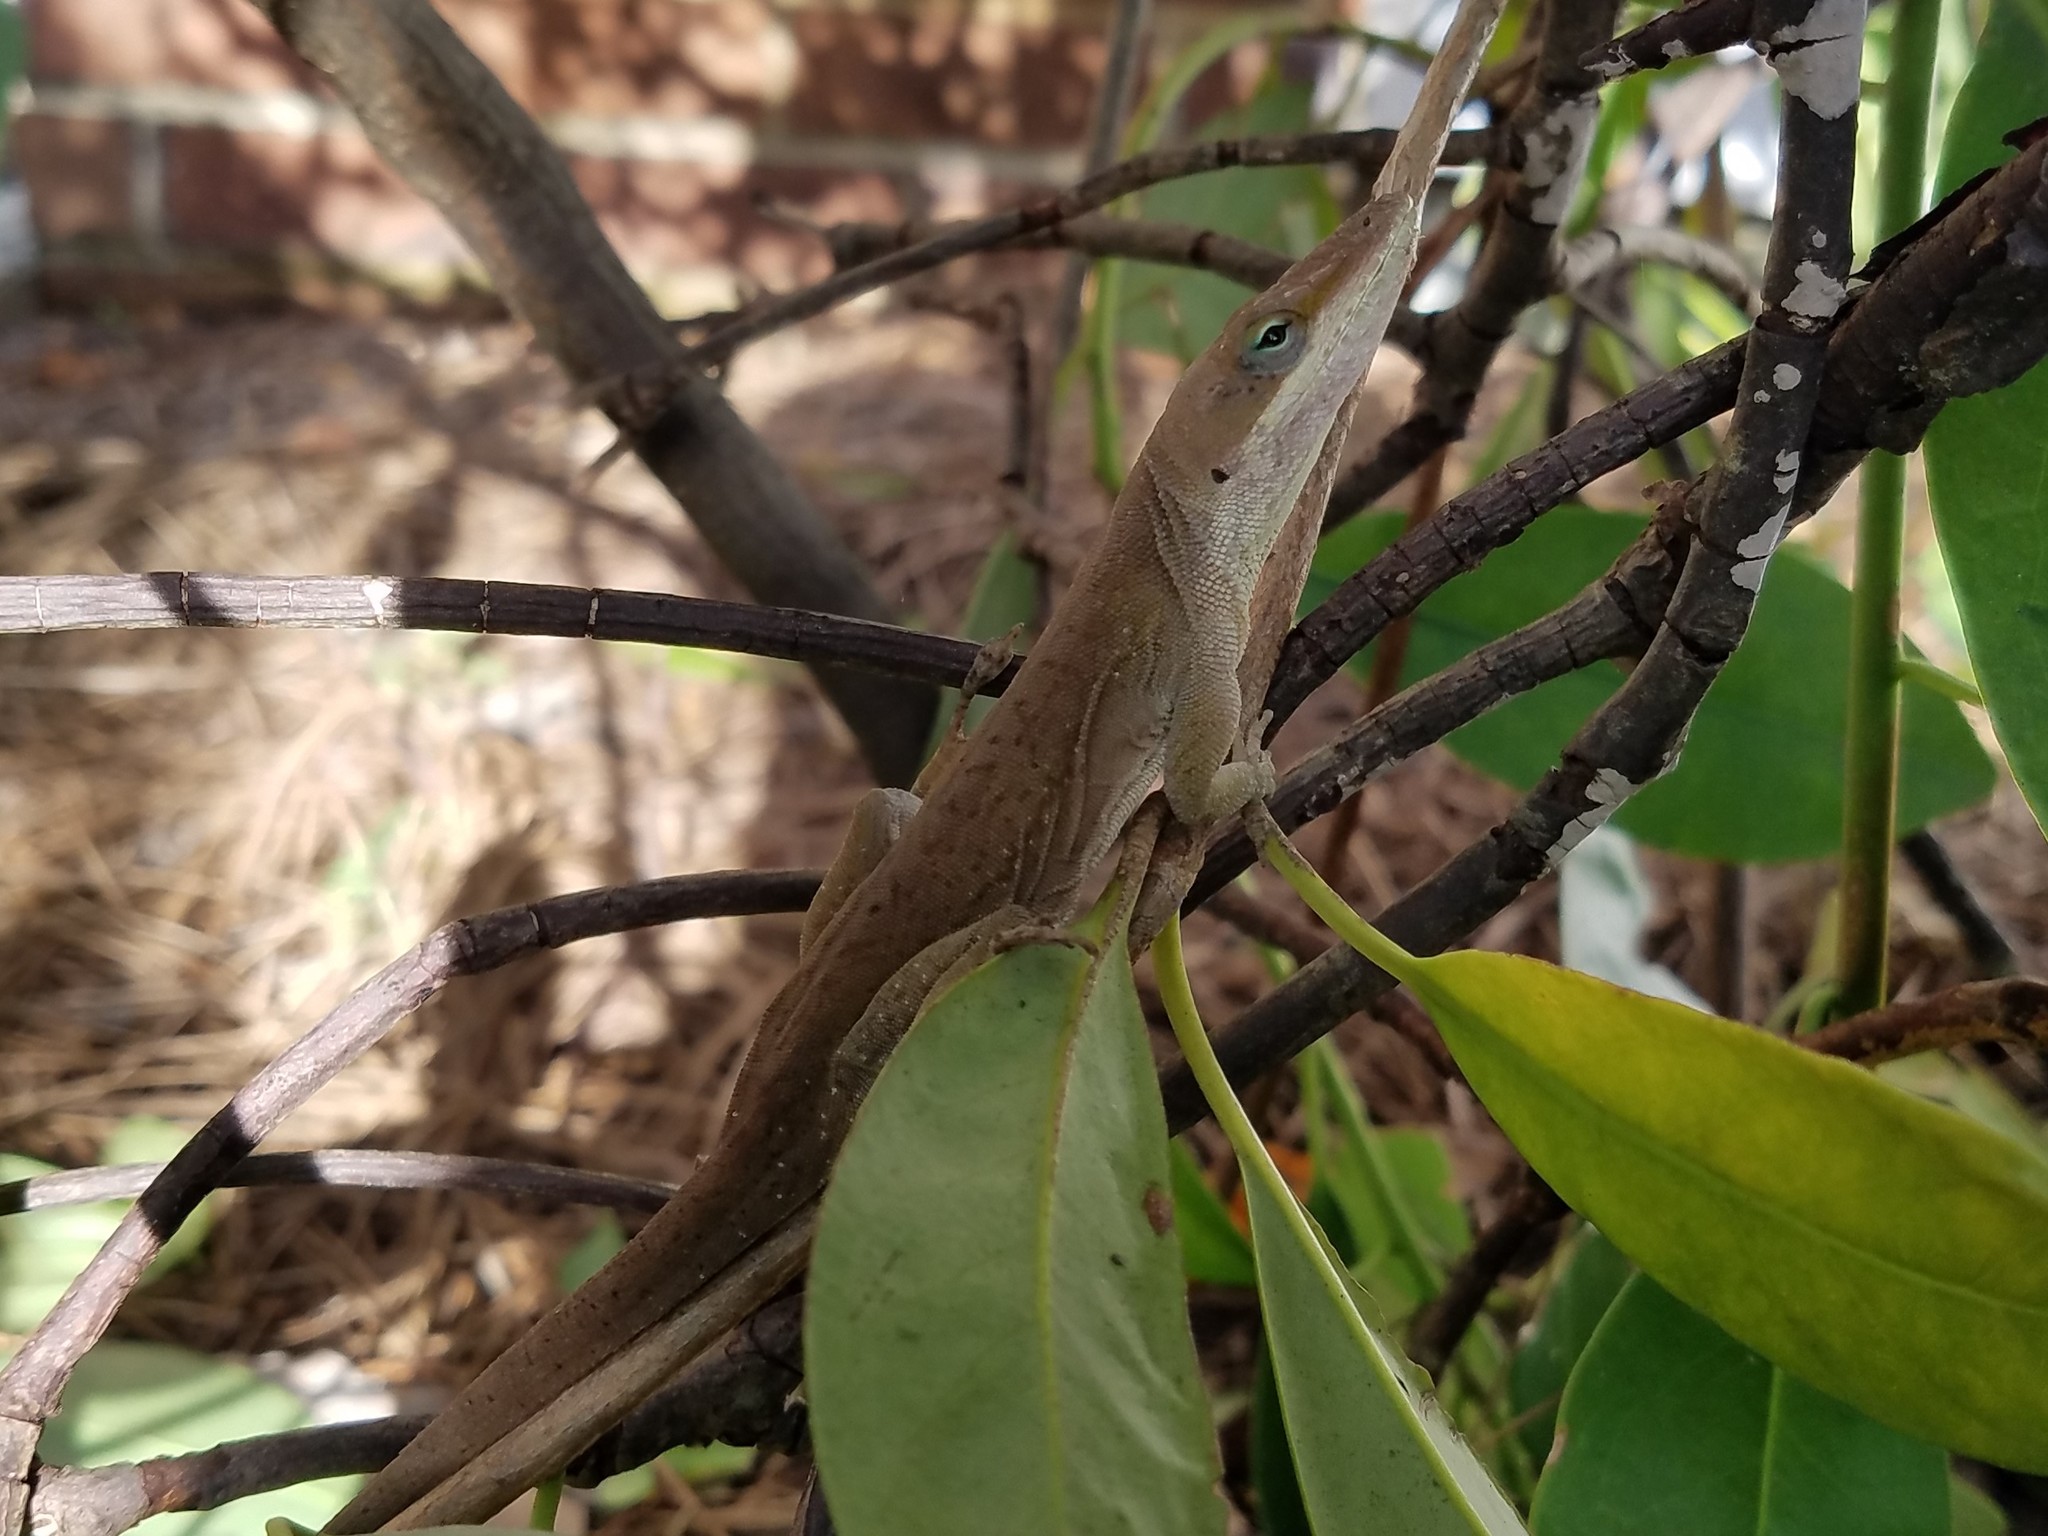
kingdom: Animalia
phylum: Chordata
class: Squamata
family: Dactyloidae
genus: Anolis
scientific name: Anolis carolinensis
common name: Green anole
